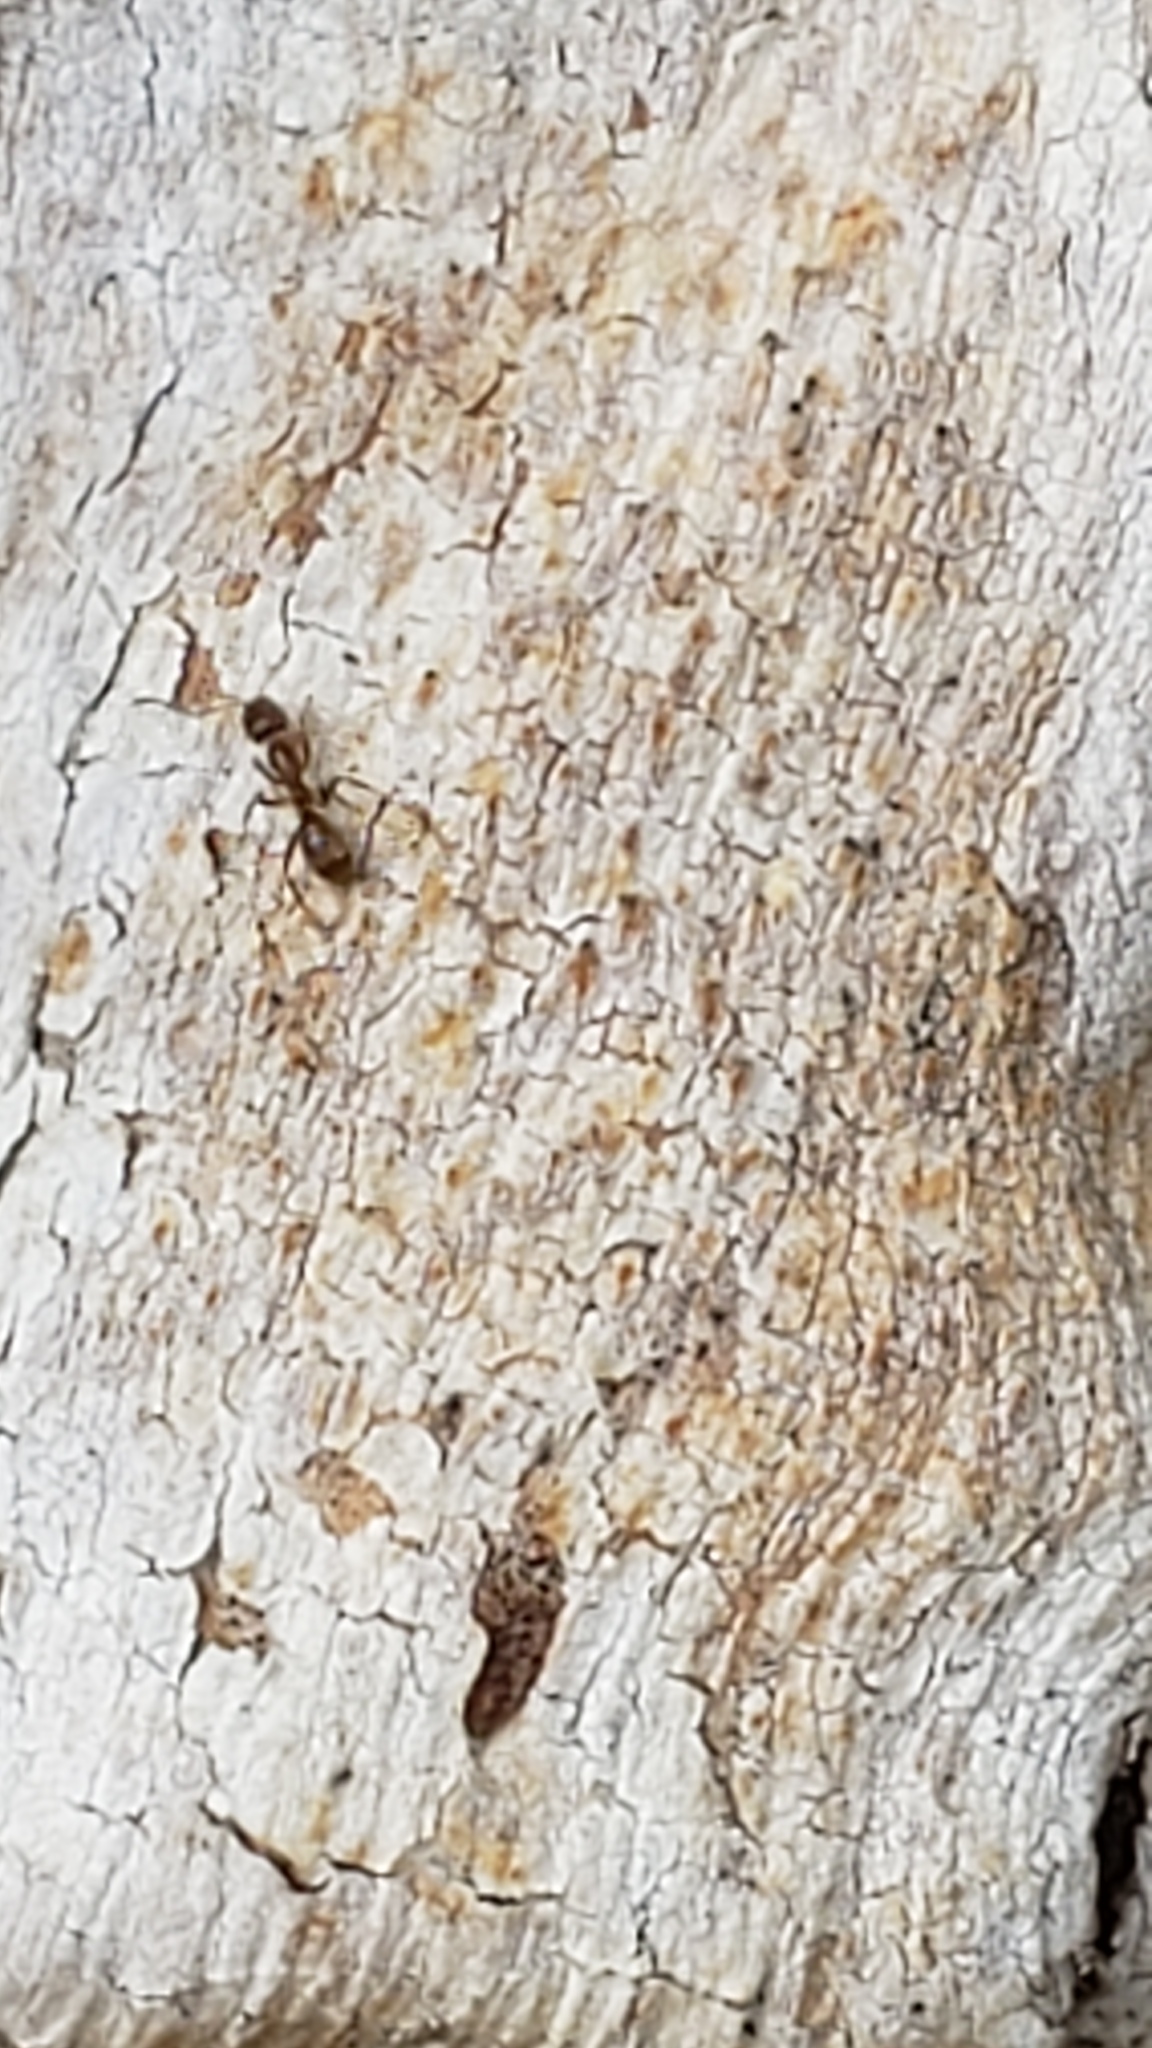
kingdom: Animalia
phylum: Arthropoda
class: Insecta
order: Hymenoptera
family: Formicidae
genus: Linepithema
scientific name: Linepithema humile
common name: Argentine ant
